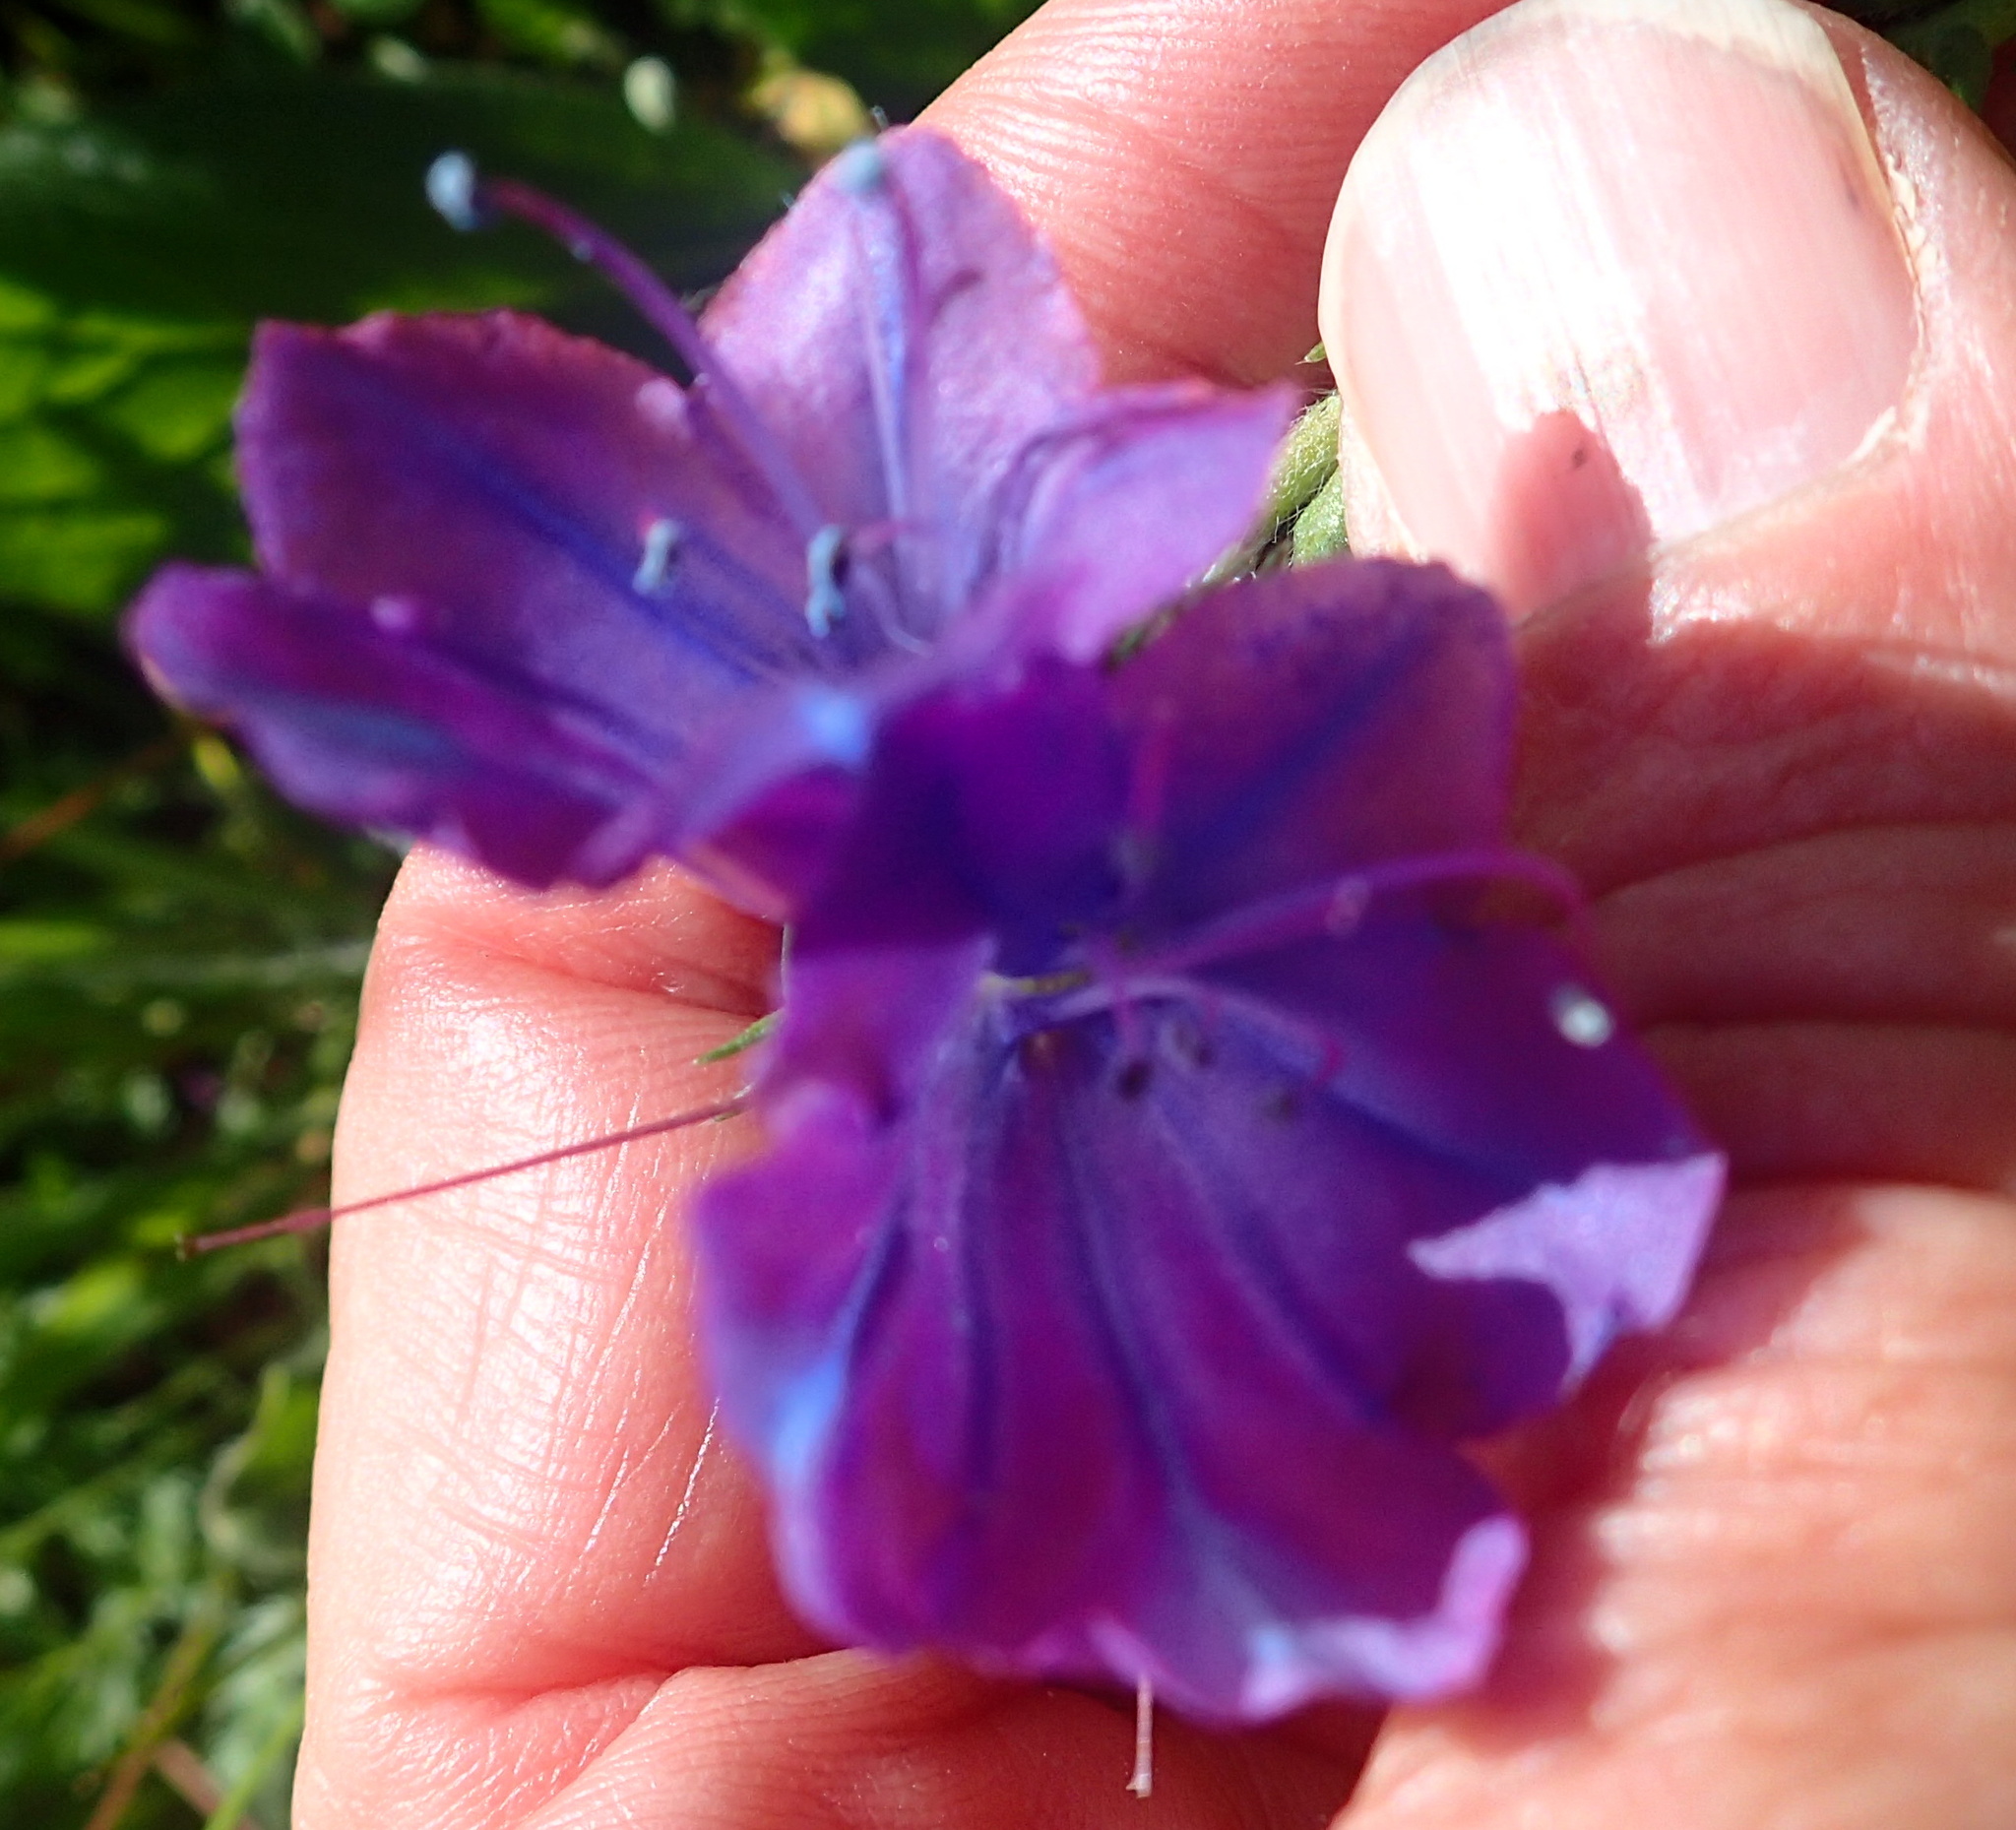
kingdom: Plantae
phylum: Tracheophyta
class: Magnoliopsida
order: Boraginales
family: Boraginaceae
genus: Echium
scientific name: Echium plantagineum
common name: Purple viper's-bugloss
